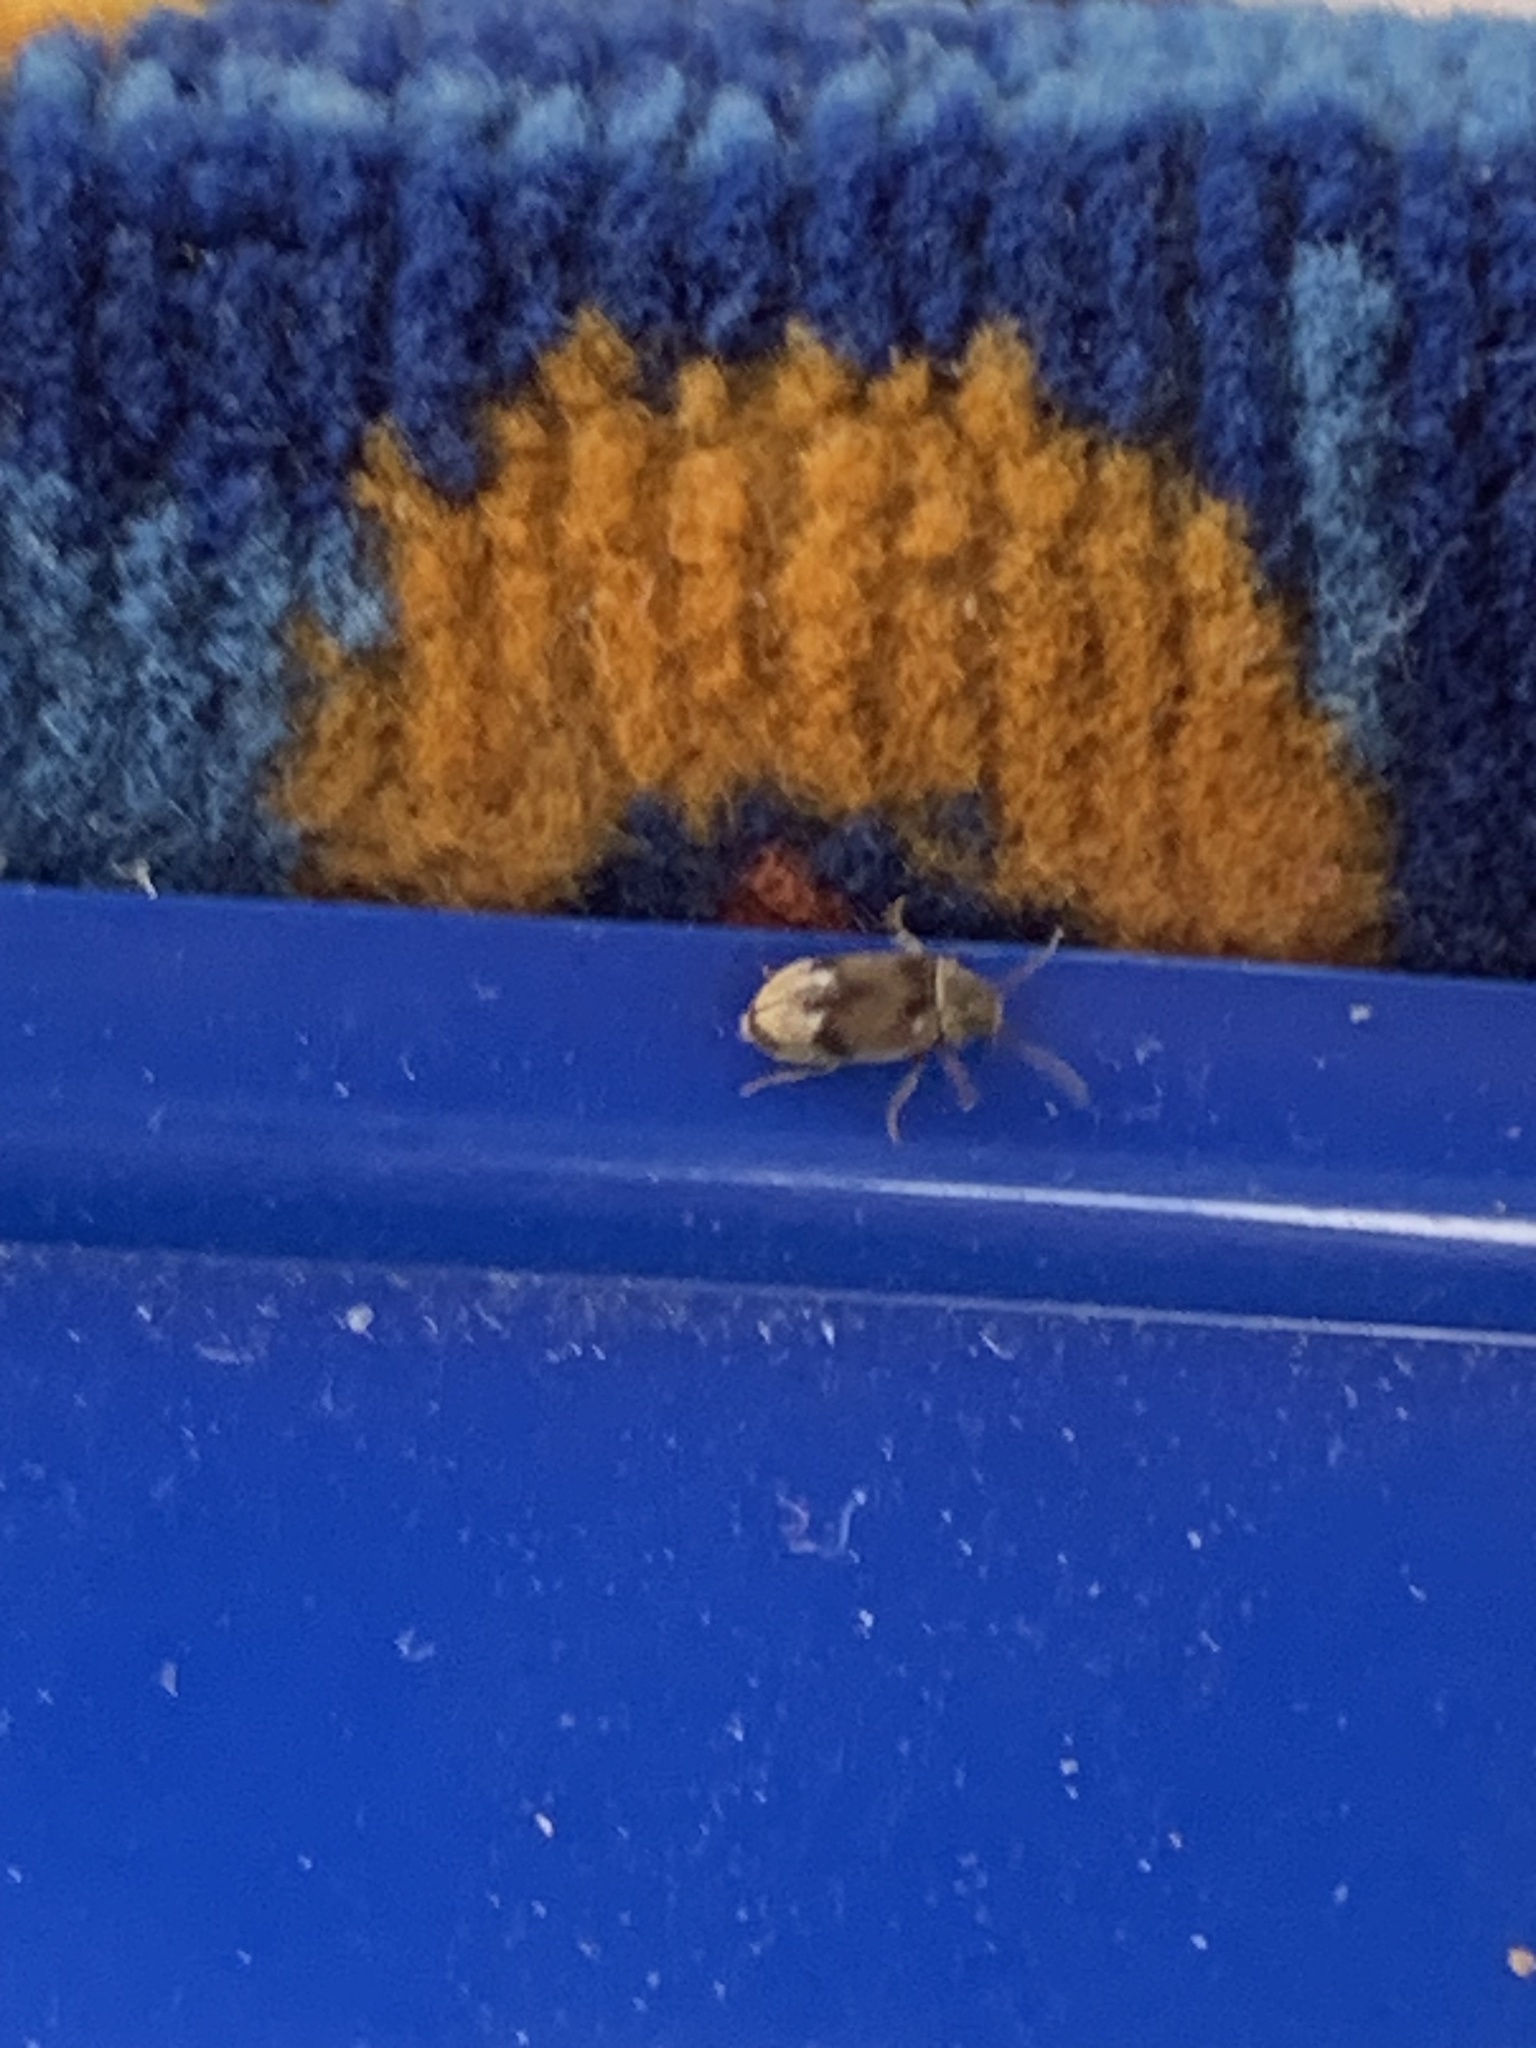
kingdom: Animalia
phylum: Arthropoda
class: Insecta
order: Coleoptera
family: Ptinidae
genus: Ochina
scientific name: Ochina ptinoides
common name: Ivy boring beetle
